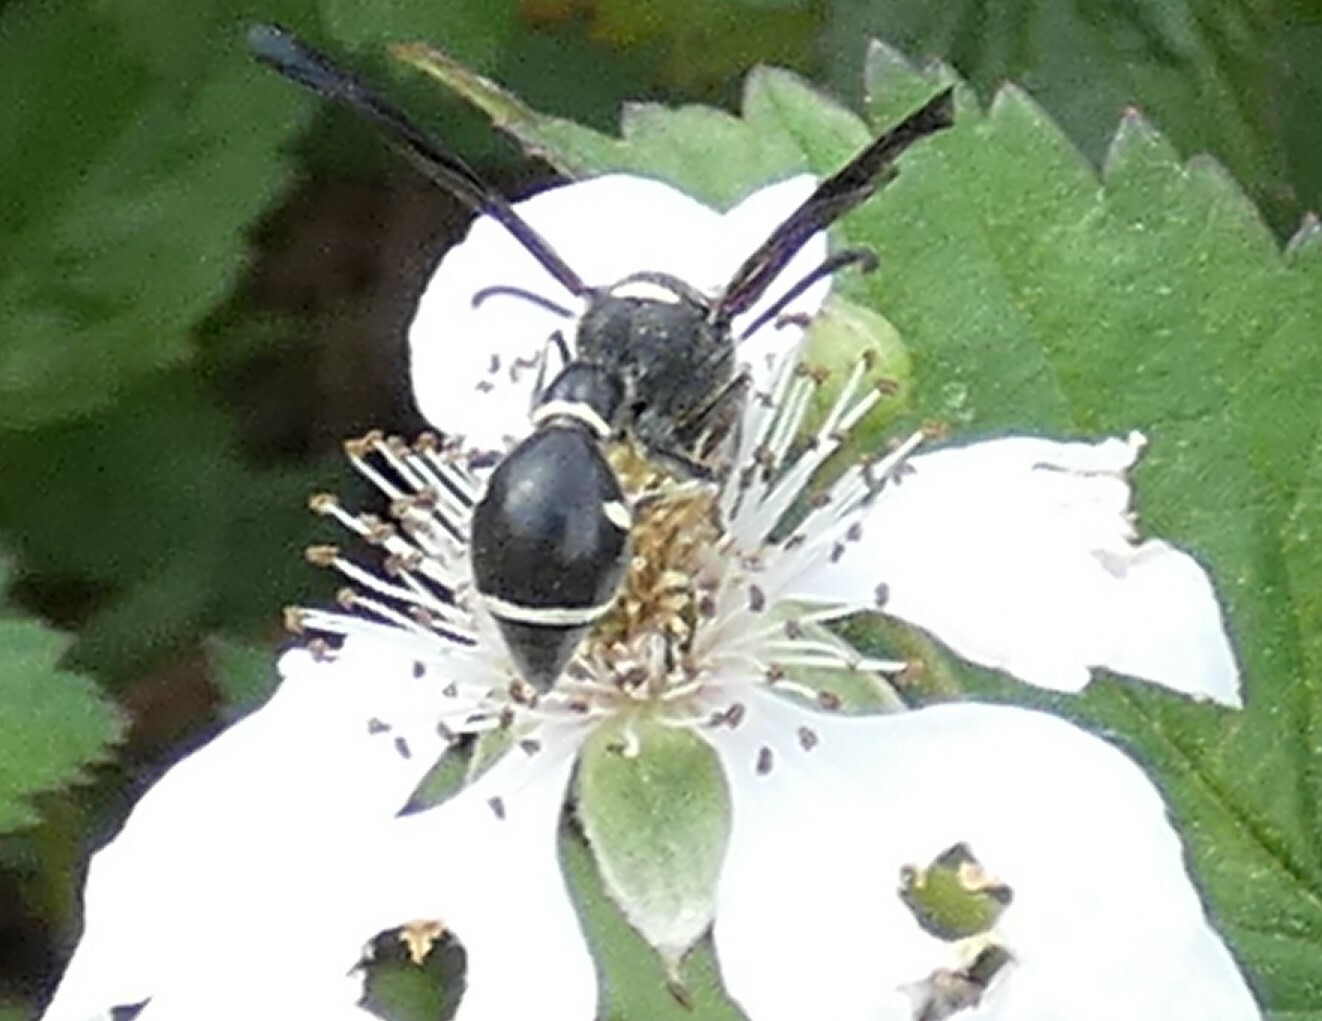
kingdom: Animalia
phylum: Arthropoda
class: Insecta
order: Hymenoptera
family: Vespidae
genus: Eumenes
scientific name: Eumenes fraternus
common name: Fraternal potter wasp
